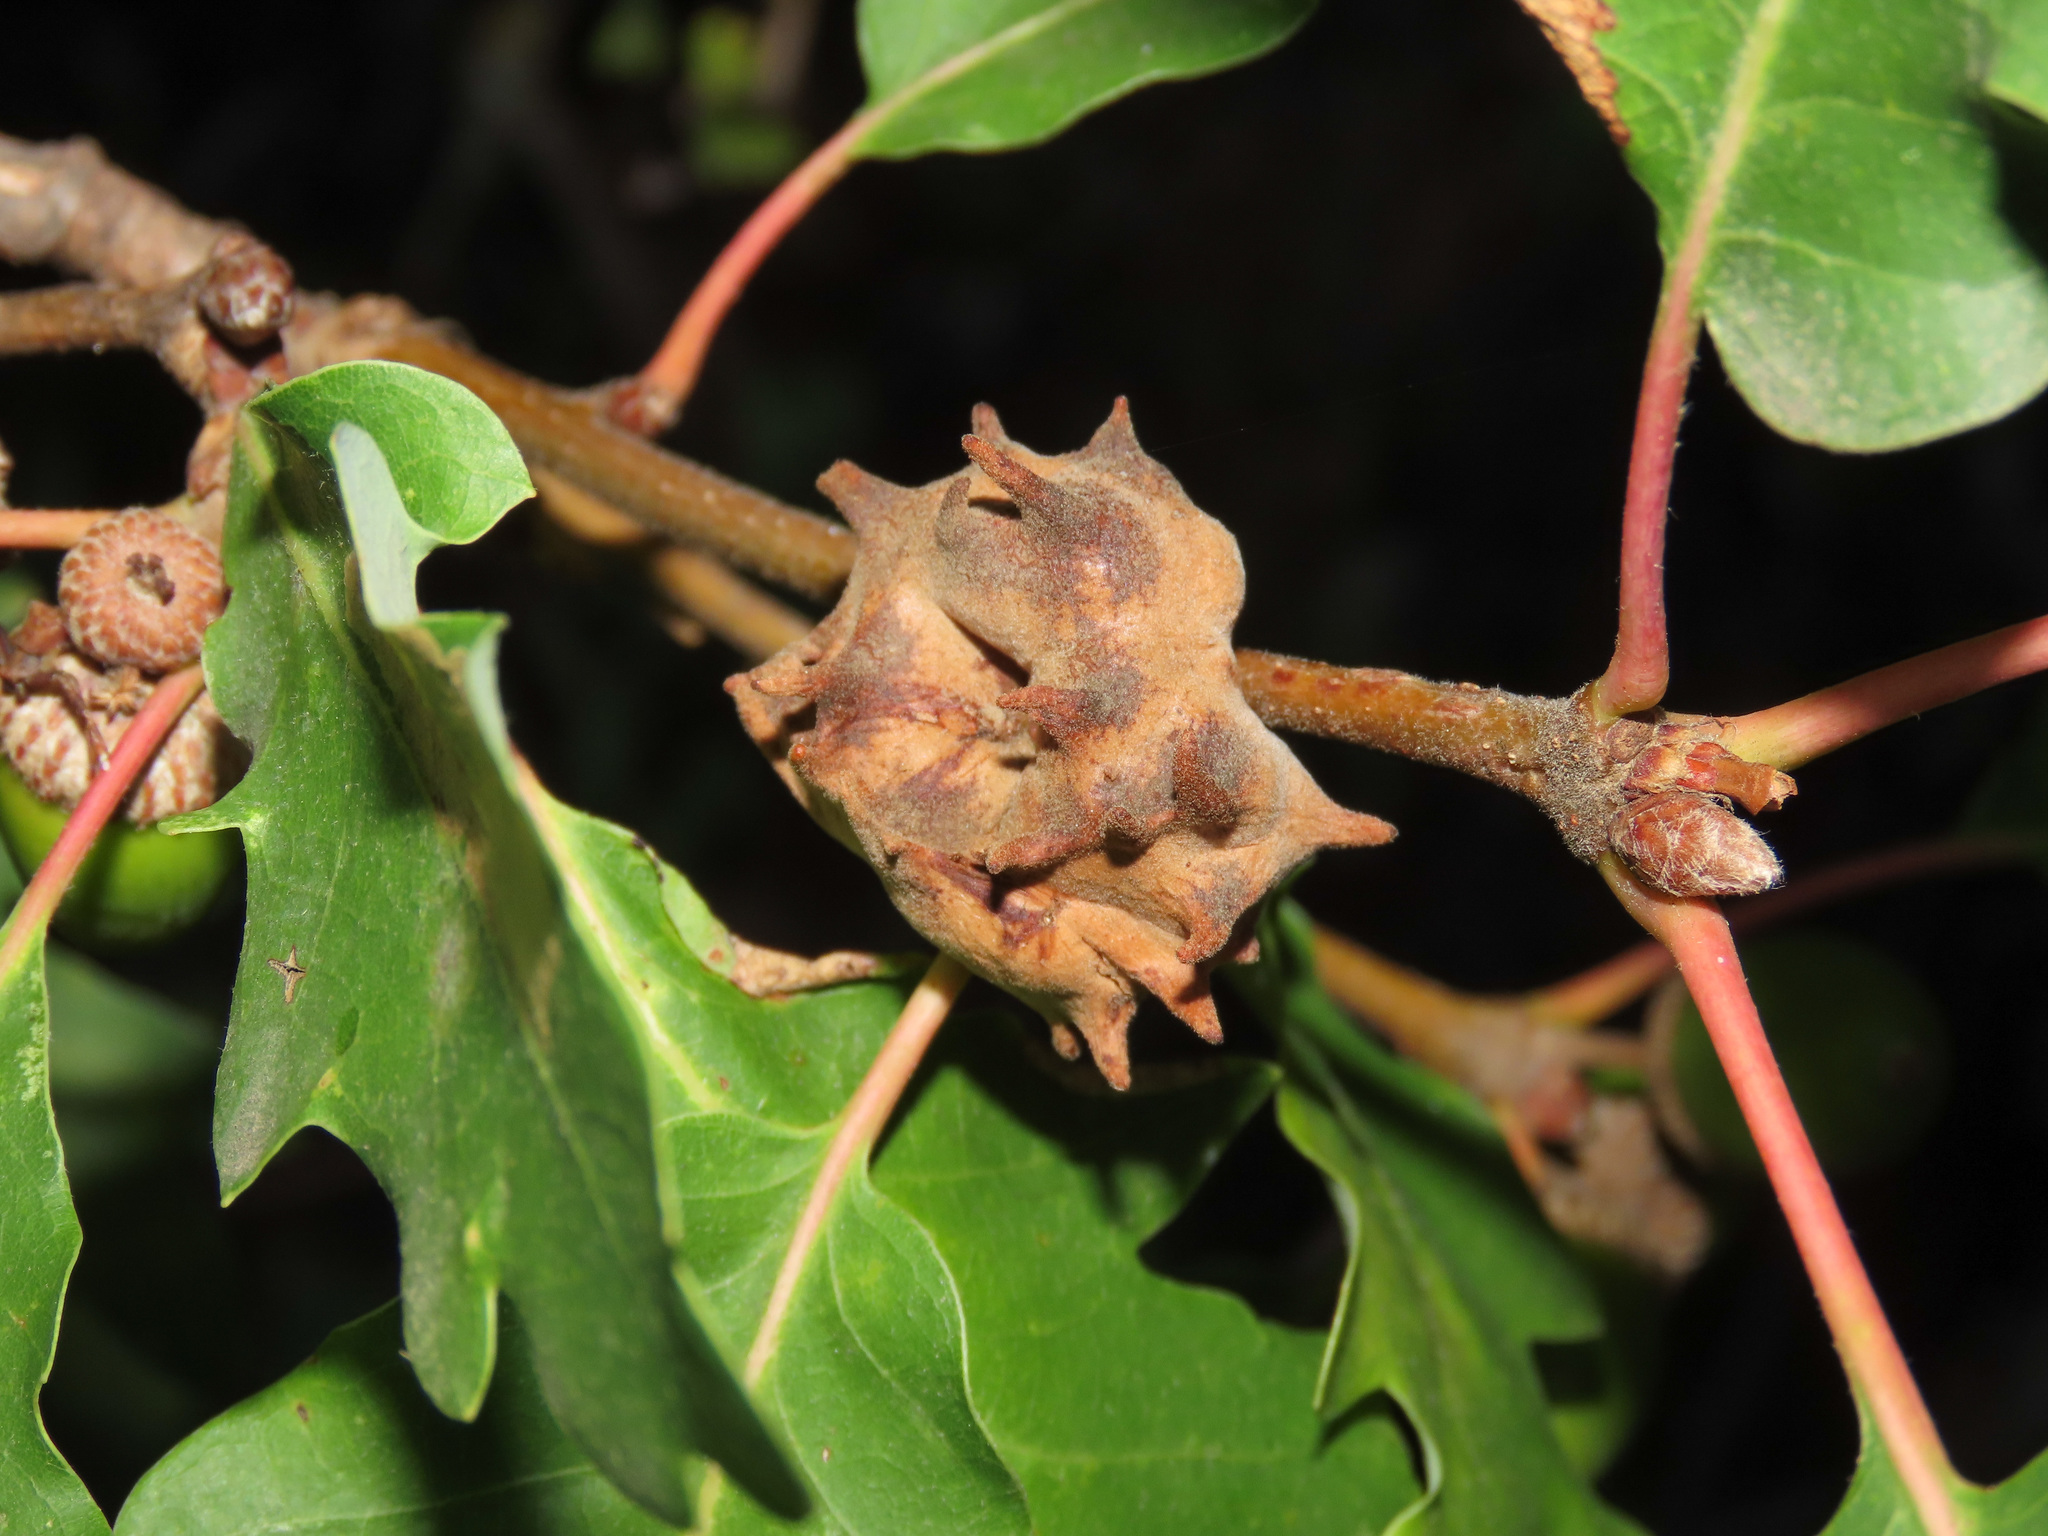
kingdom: Animalia
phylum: Arthropoda
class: Insecta
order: Hymenoptera
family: Cynipidae
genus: Andricus
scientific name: Andricus coriarius
